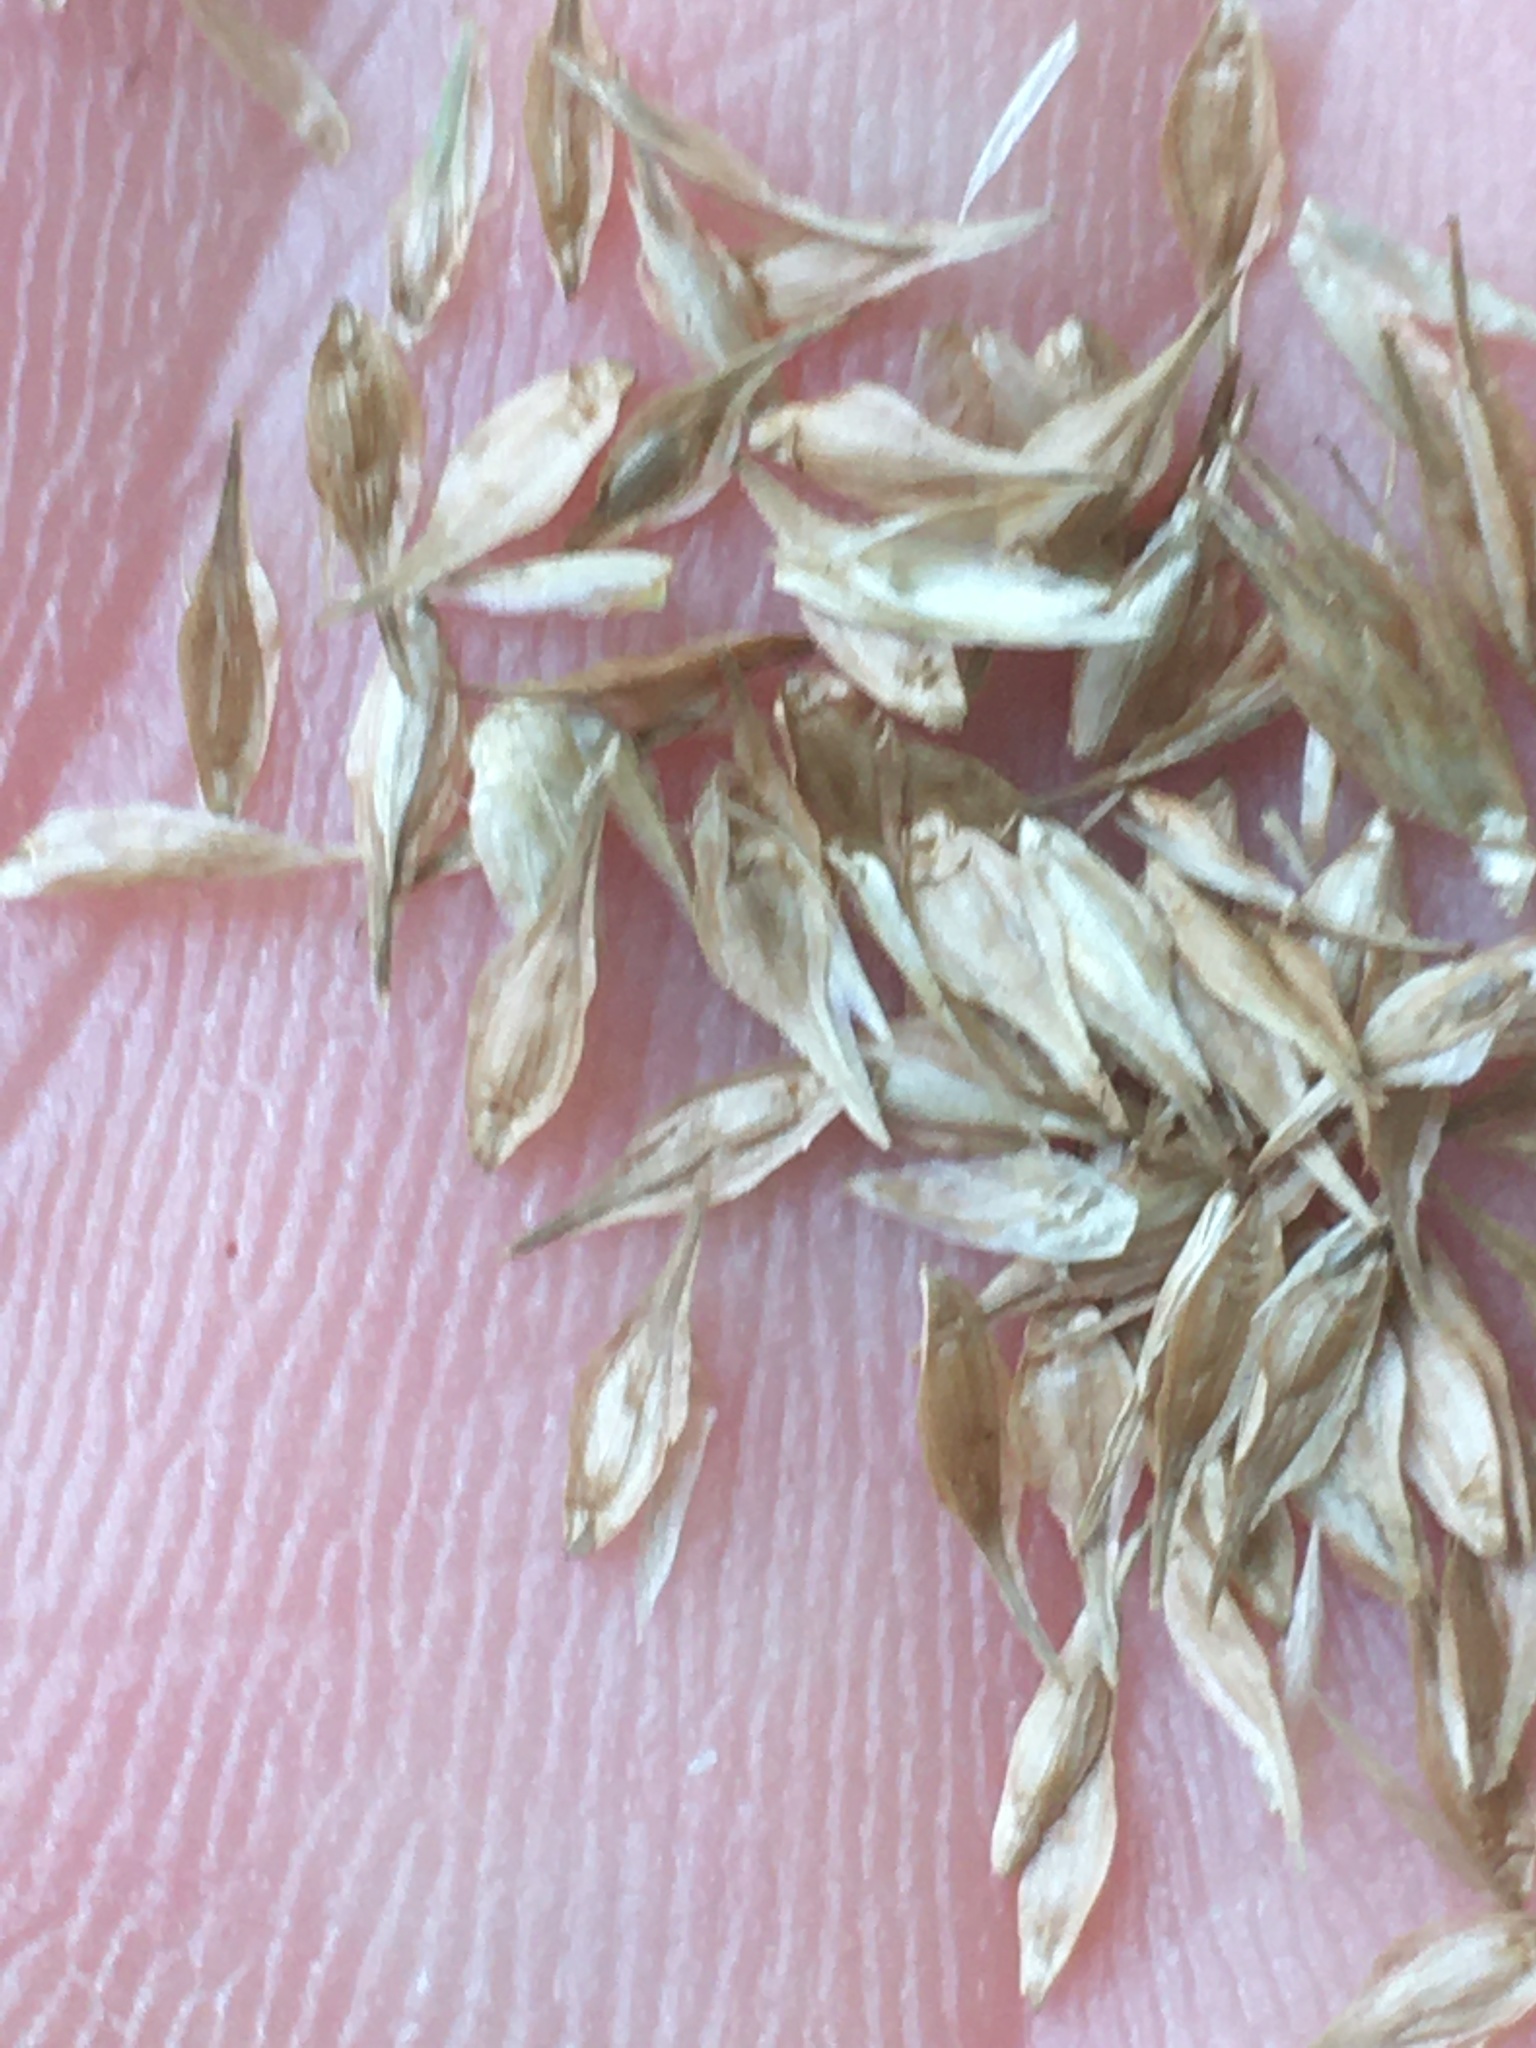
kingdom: Plantae
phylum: Tracheophyta
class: Liliopsida
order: Poales
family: Cyperaceae
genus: Carex
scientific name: Carex scoparia
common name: Broom sedge
